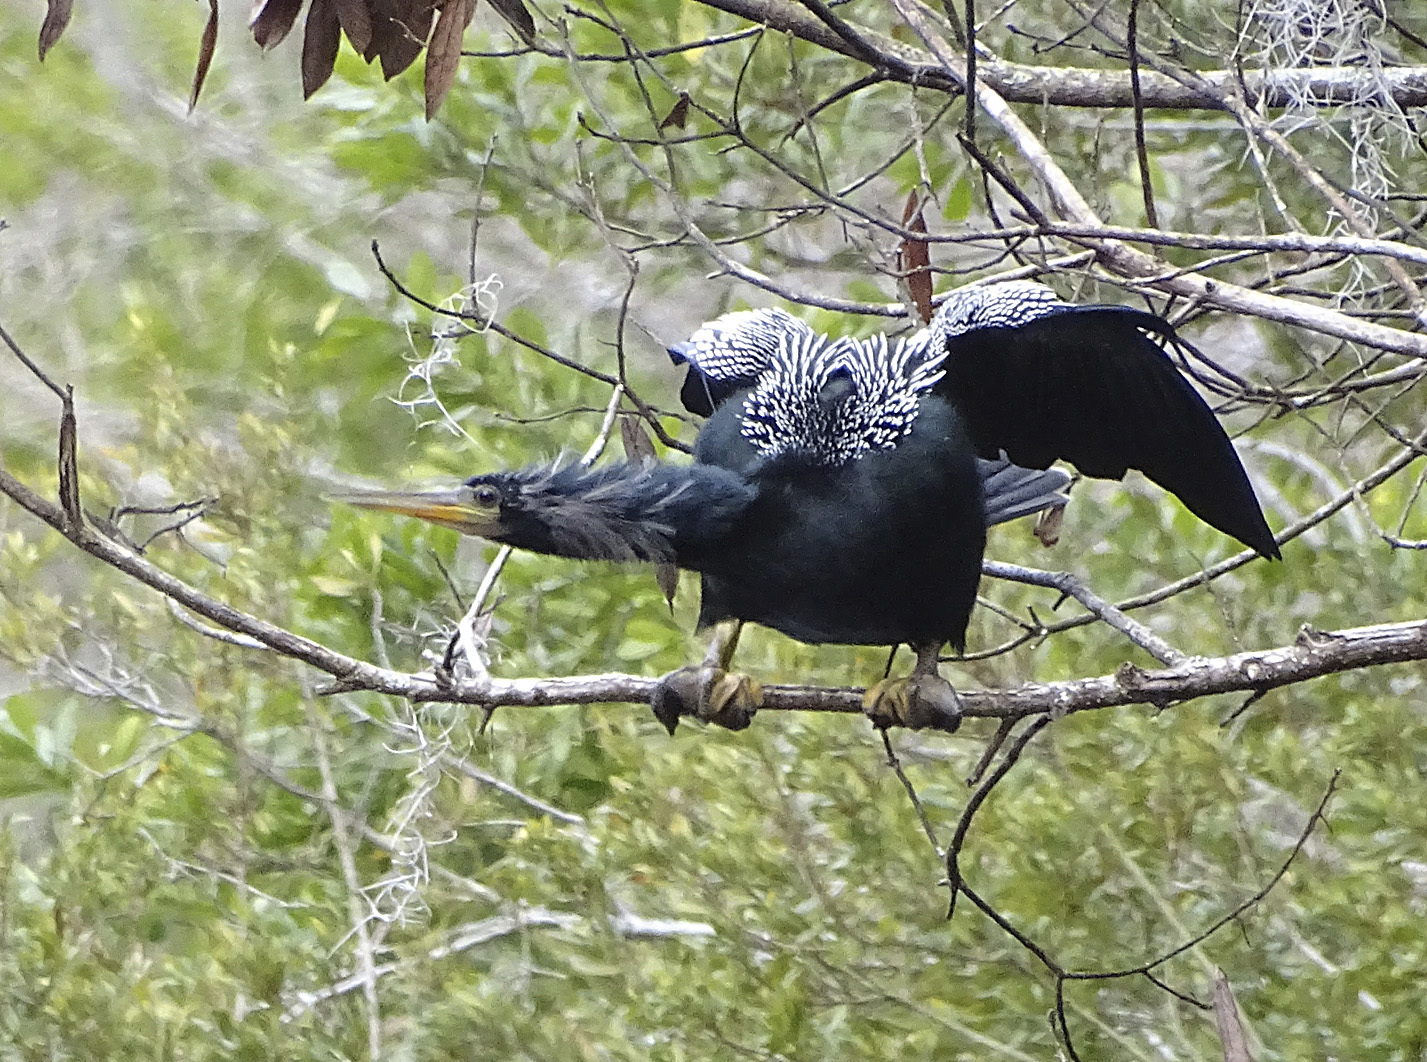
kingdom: Animalia
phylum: Chordata
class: Aves
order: Suliformes
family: Anhingidae
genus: Anhinga
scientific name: Anhinga anhinga
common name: Anhinga
